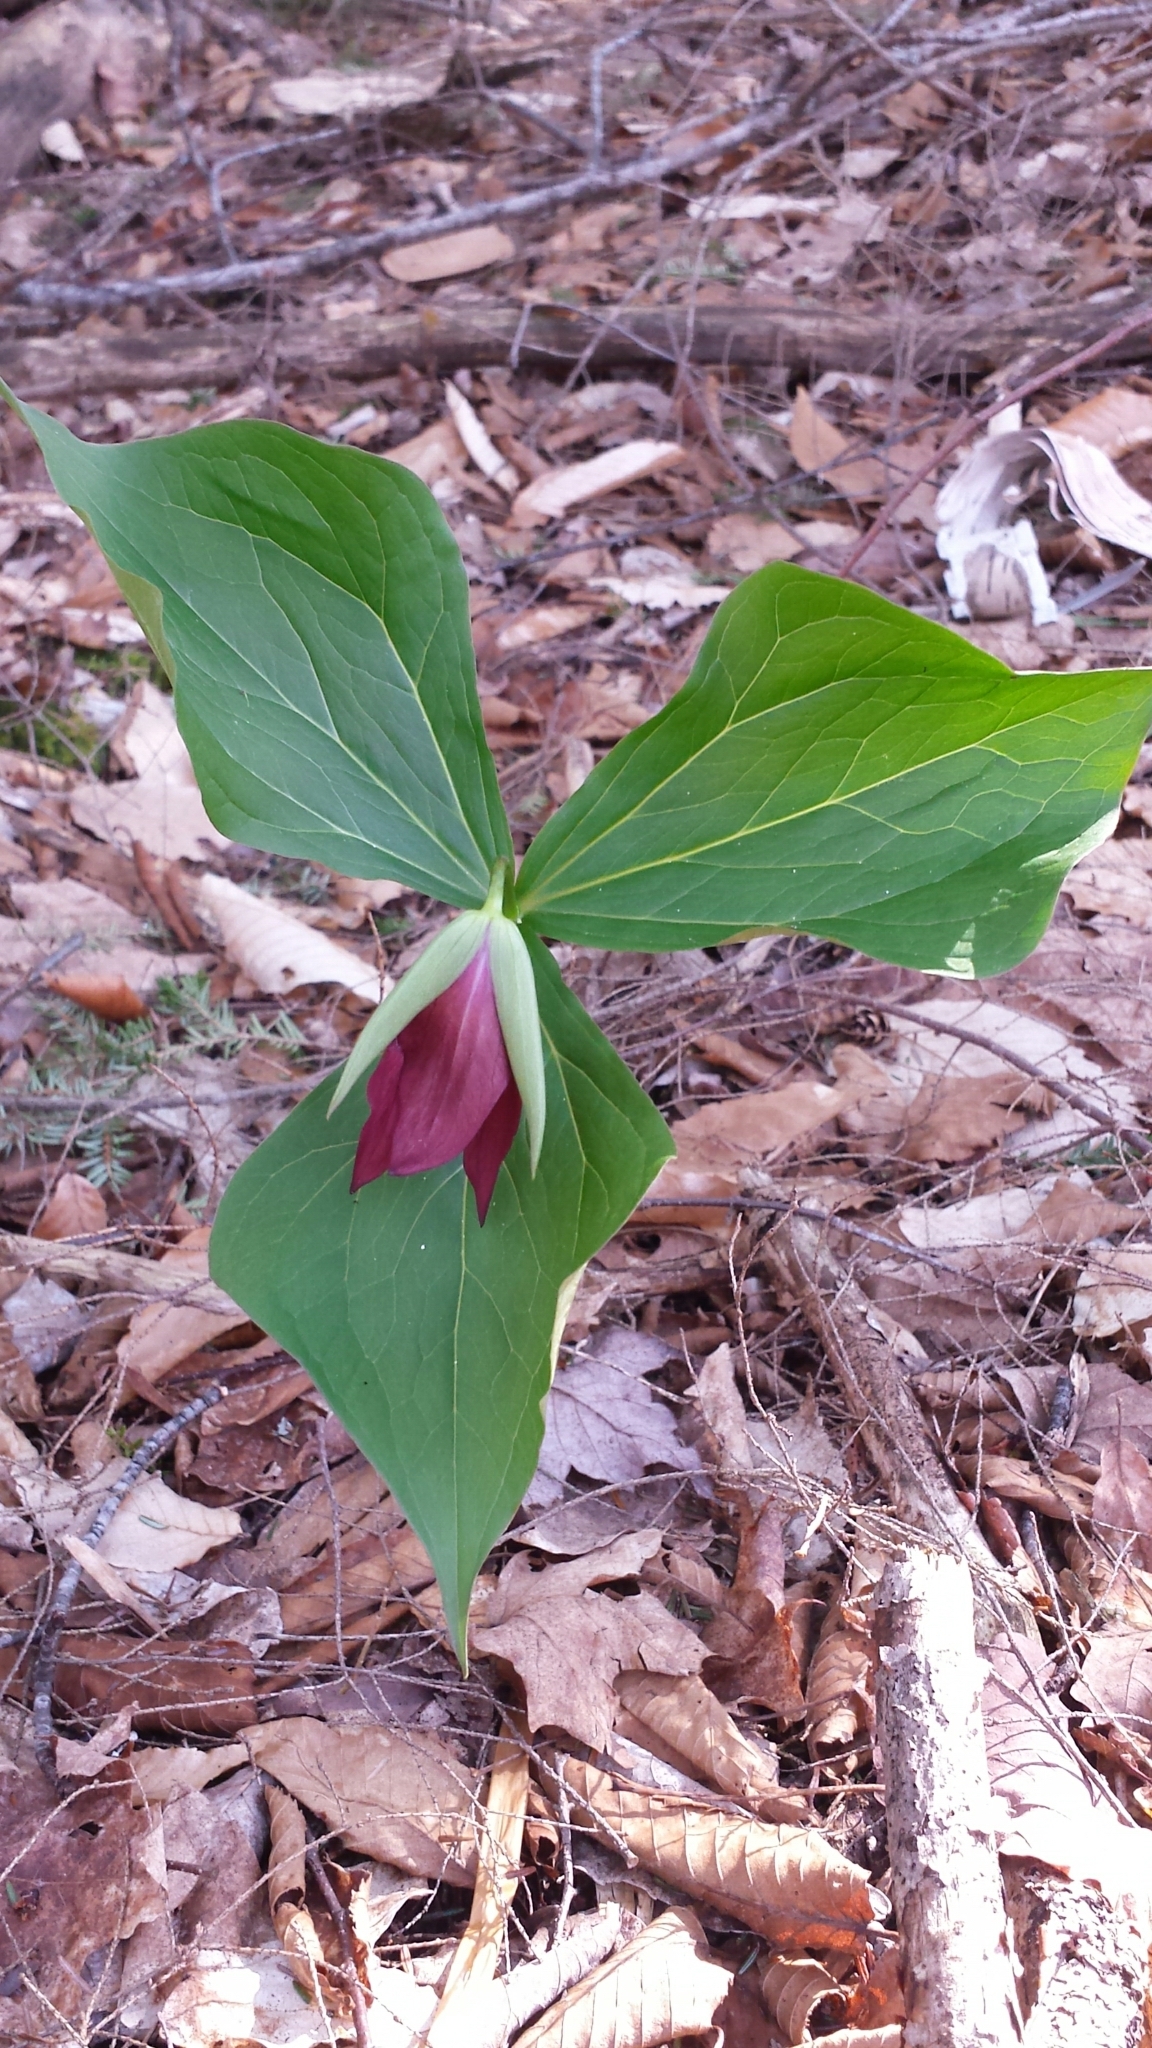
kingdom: Plantae
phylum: Tracheophyta
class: Liliopsida
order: Liliales
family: Melanthiaceae
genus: Trillium
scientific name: Trillium erectum
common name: Purple trillium
